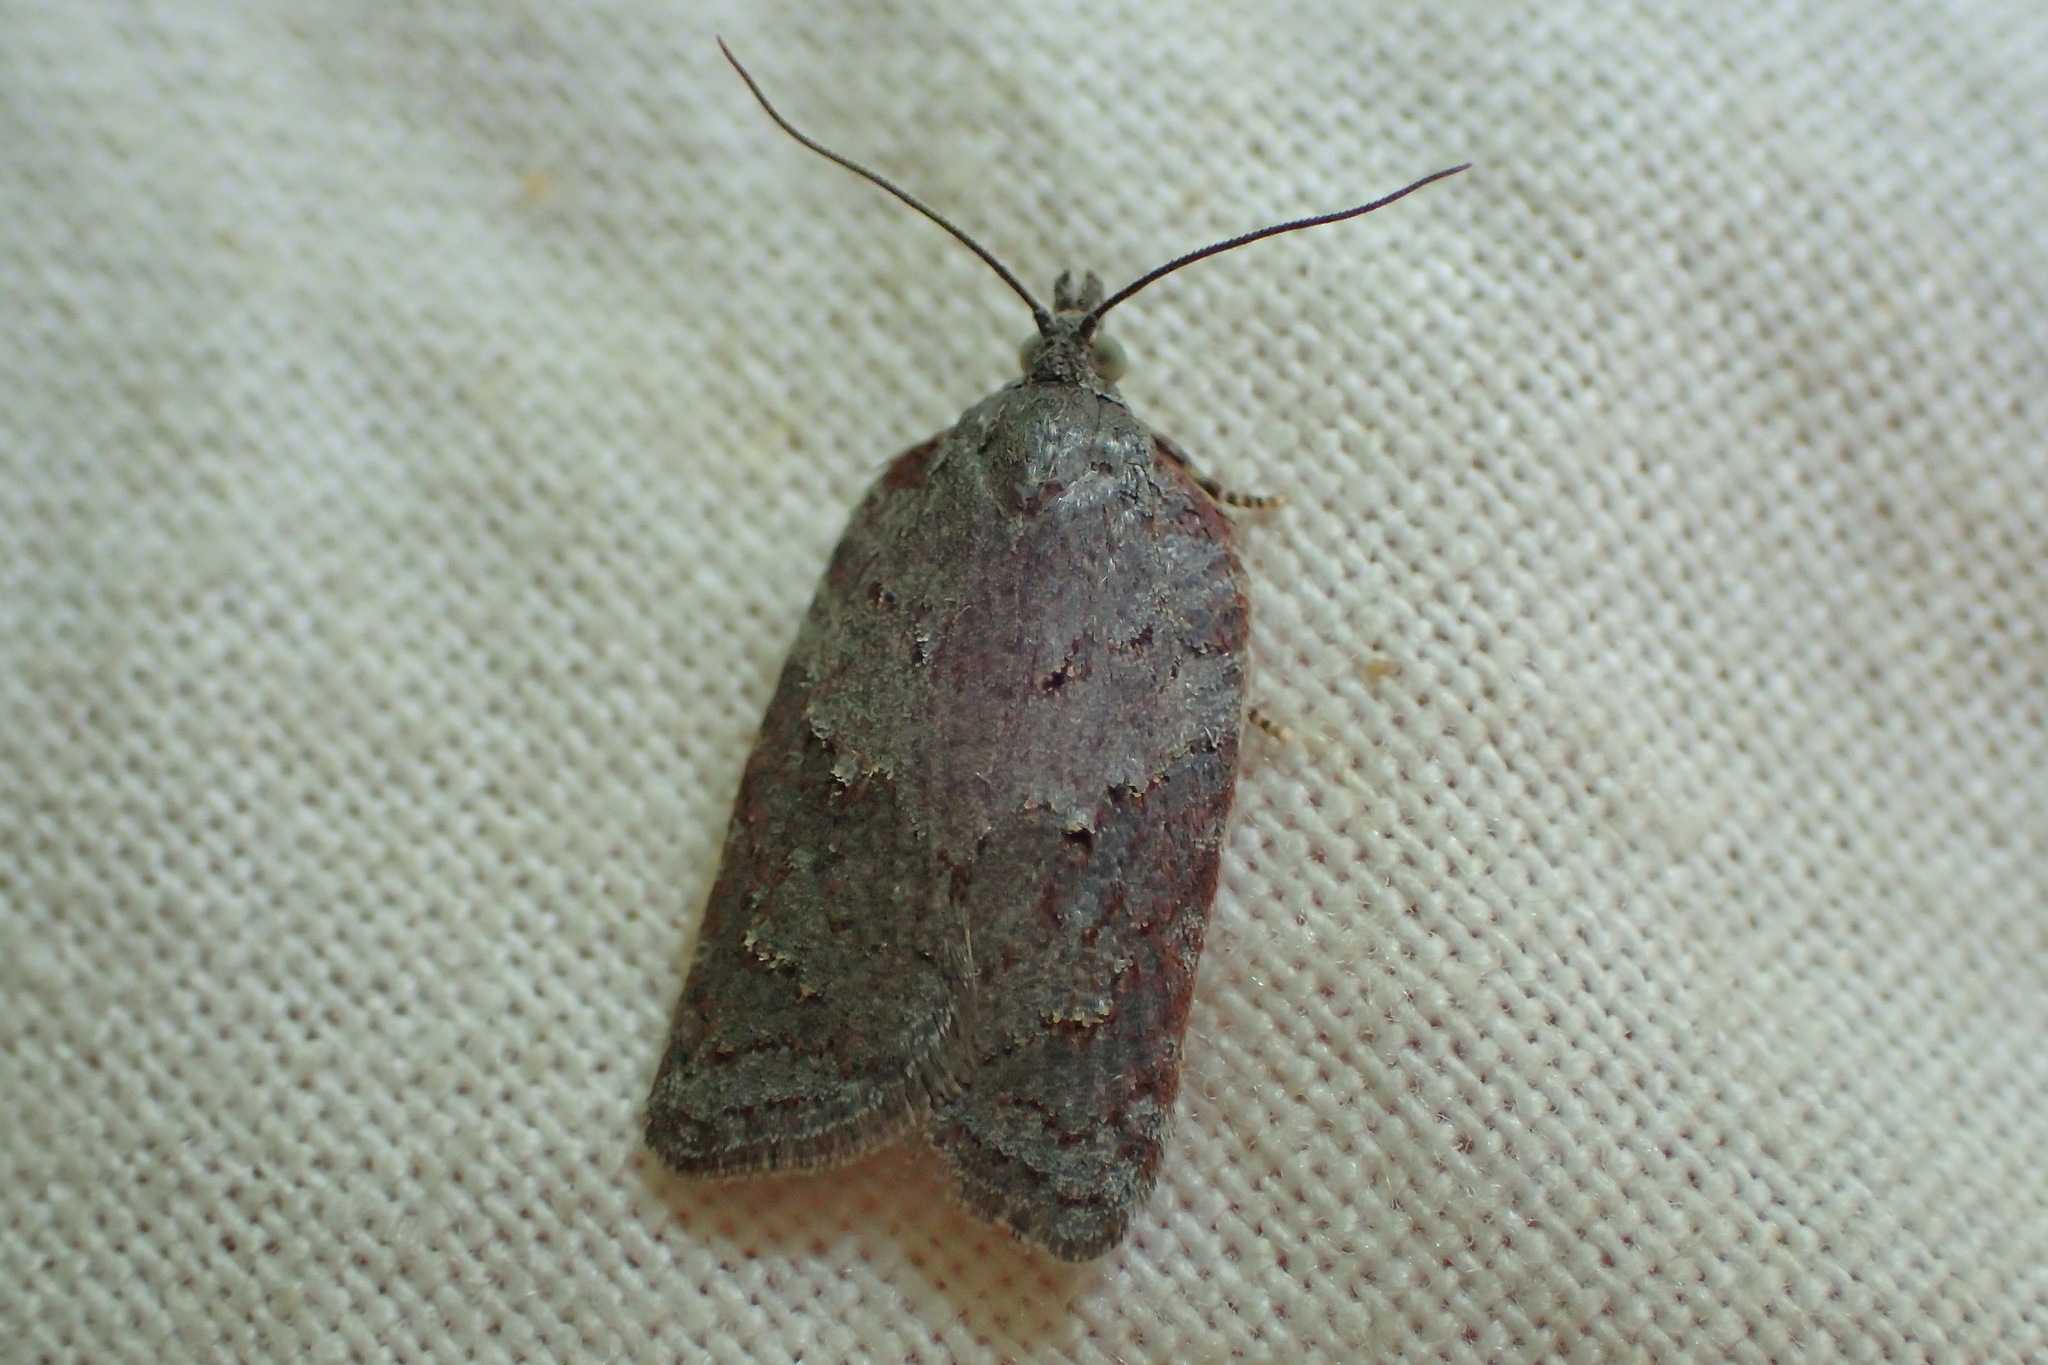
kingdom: Animalia
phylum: Arthropoda
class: Insecta
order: Lepidoptera
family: Tortricidae
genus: Acleris
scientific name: Acleris sparsana
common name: Ashy button
